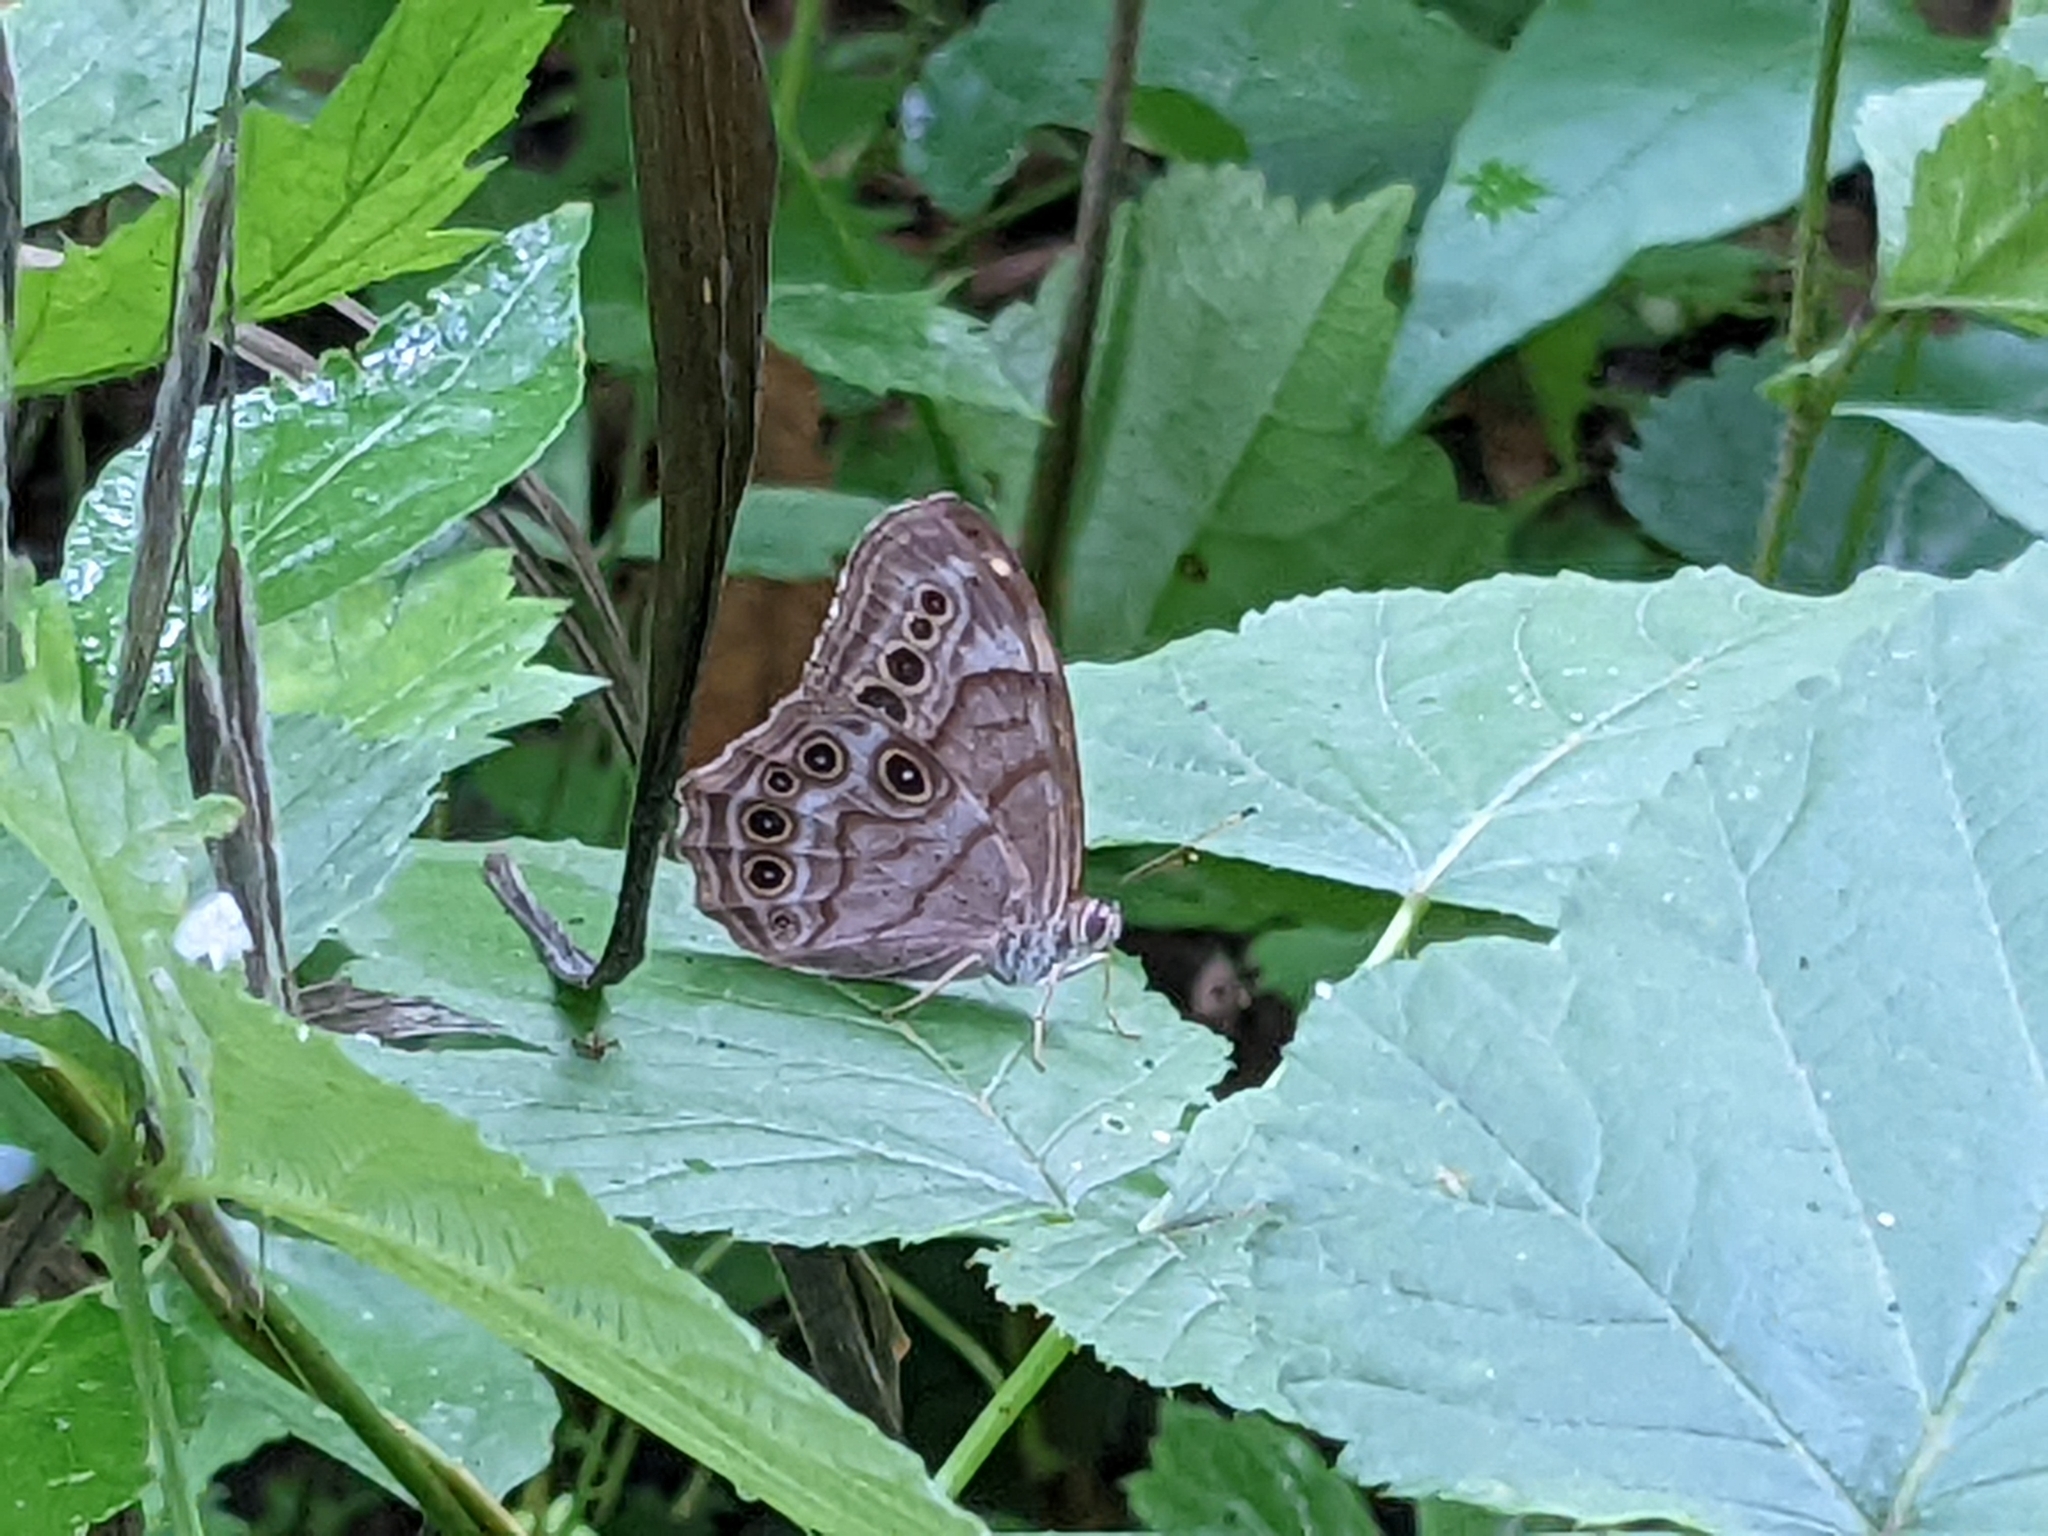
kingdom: Animalia
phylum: Arthropoda
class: Insecta
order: Lepidoptera
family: Nymphalidae
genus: Lethe
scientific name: Lethe anthedon
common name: Northern pearly-eye
